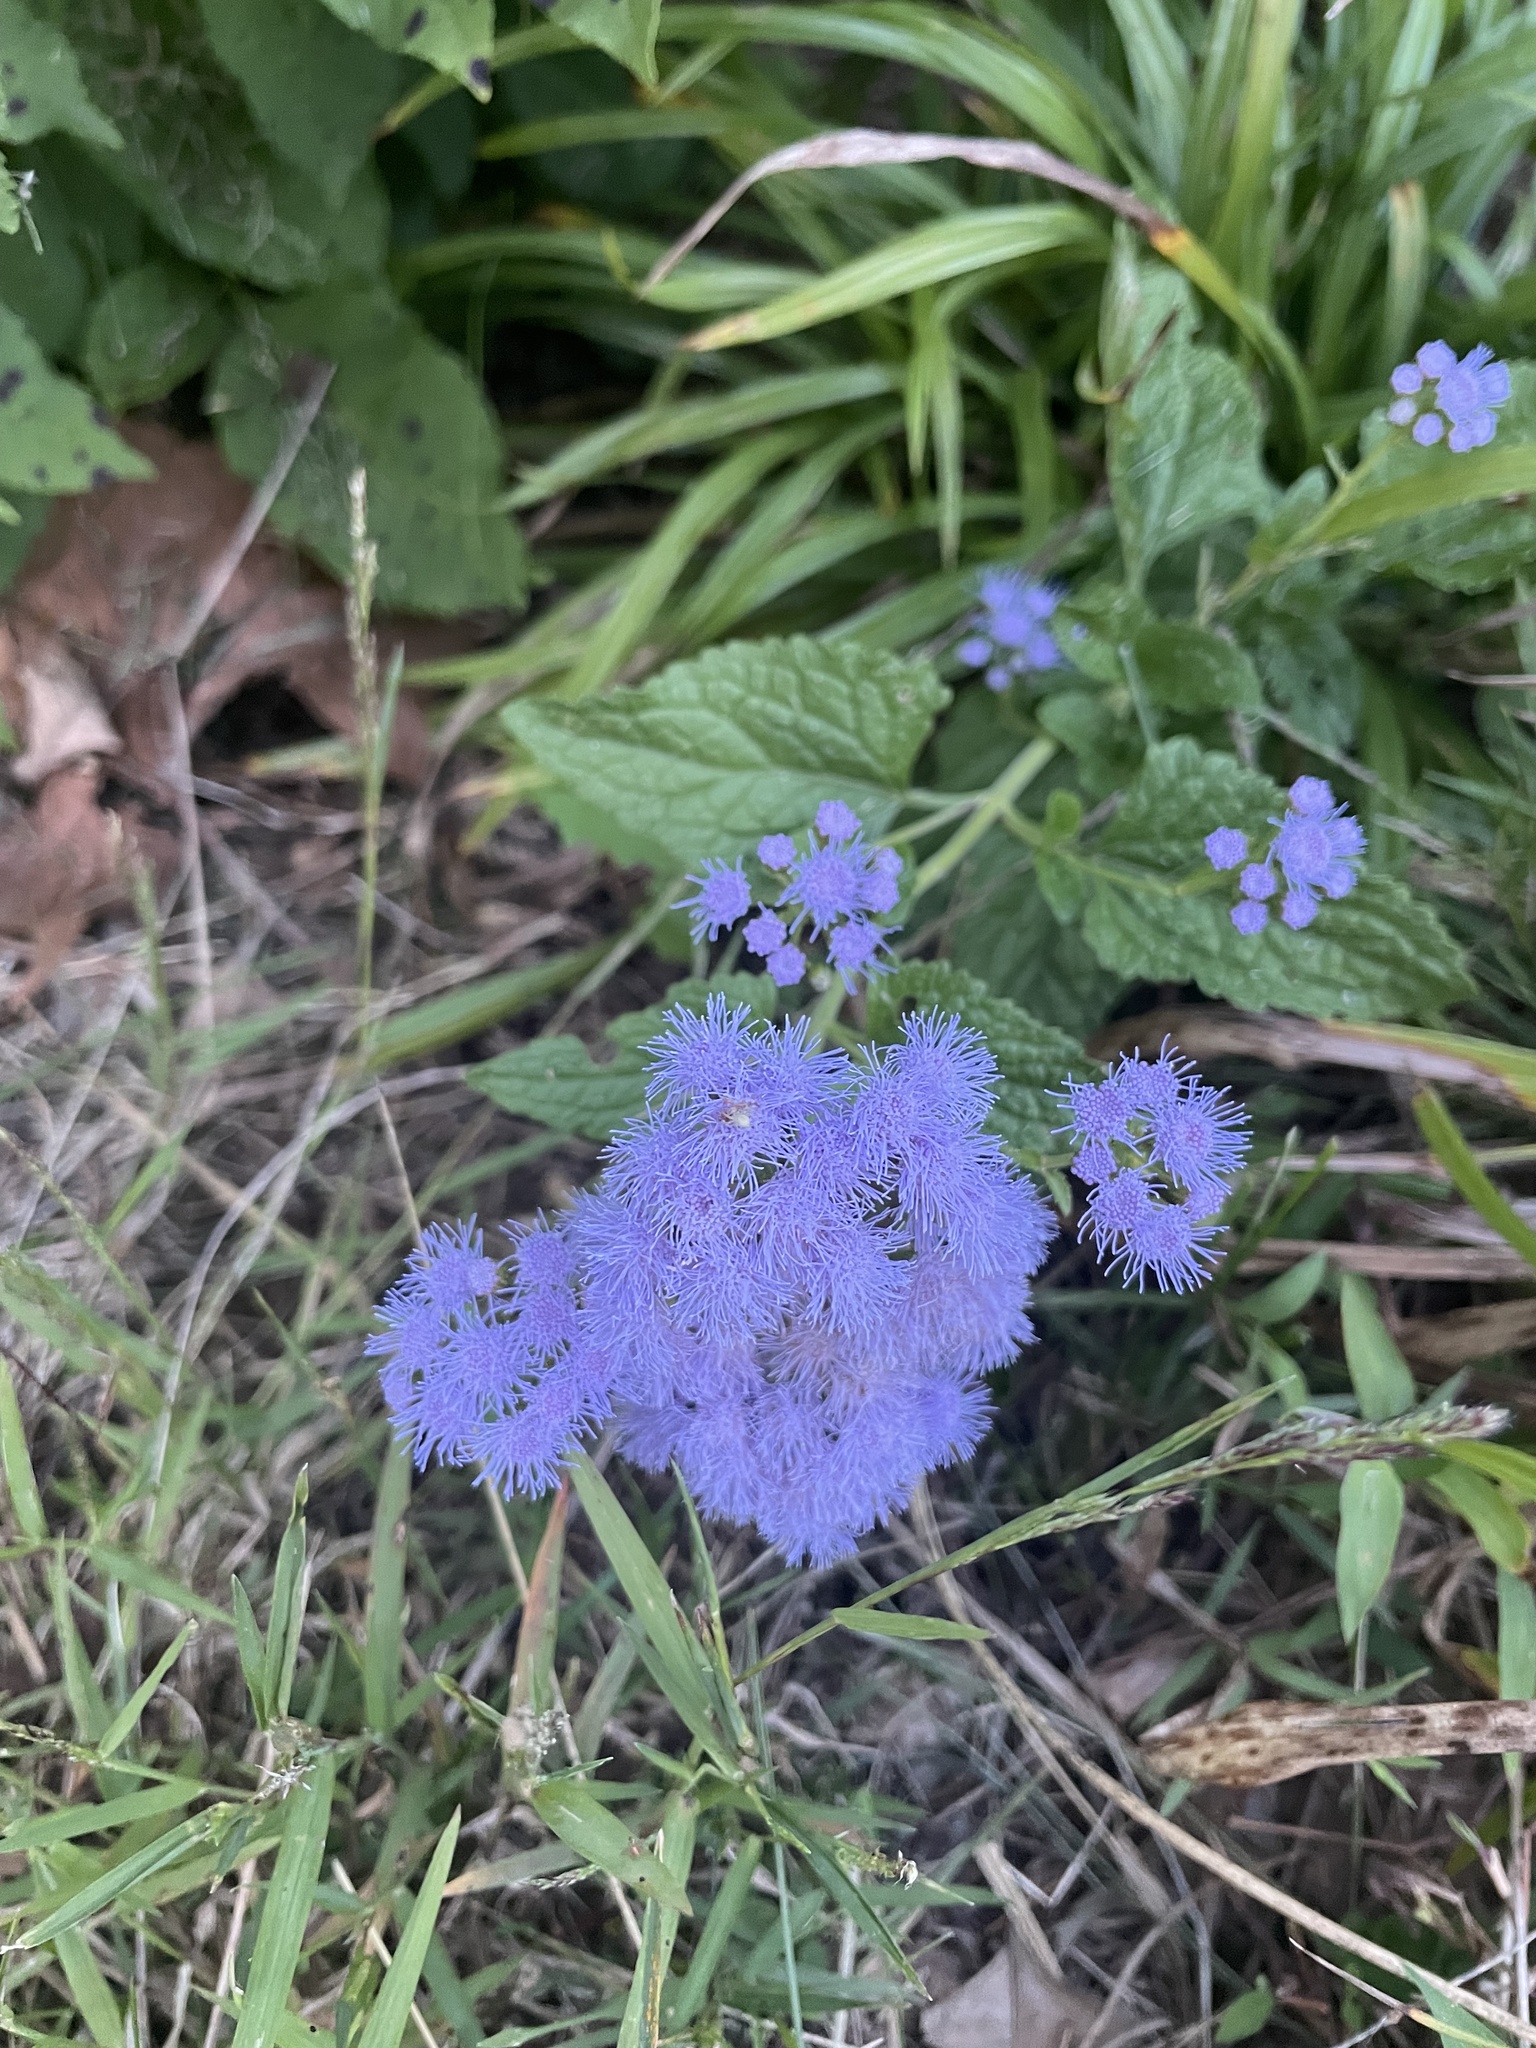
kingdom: Plantae
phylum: Tracheophyta
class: Magnoliopsida
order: Asterales
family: Asteraceae
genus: Conoclinium
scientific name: Conoclinium coelestinum
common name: Blue mistflower
